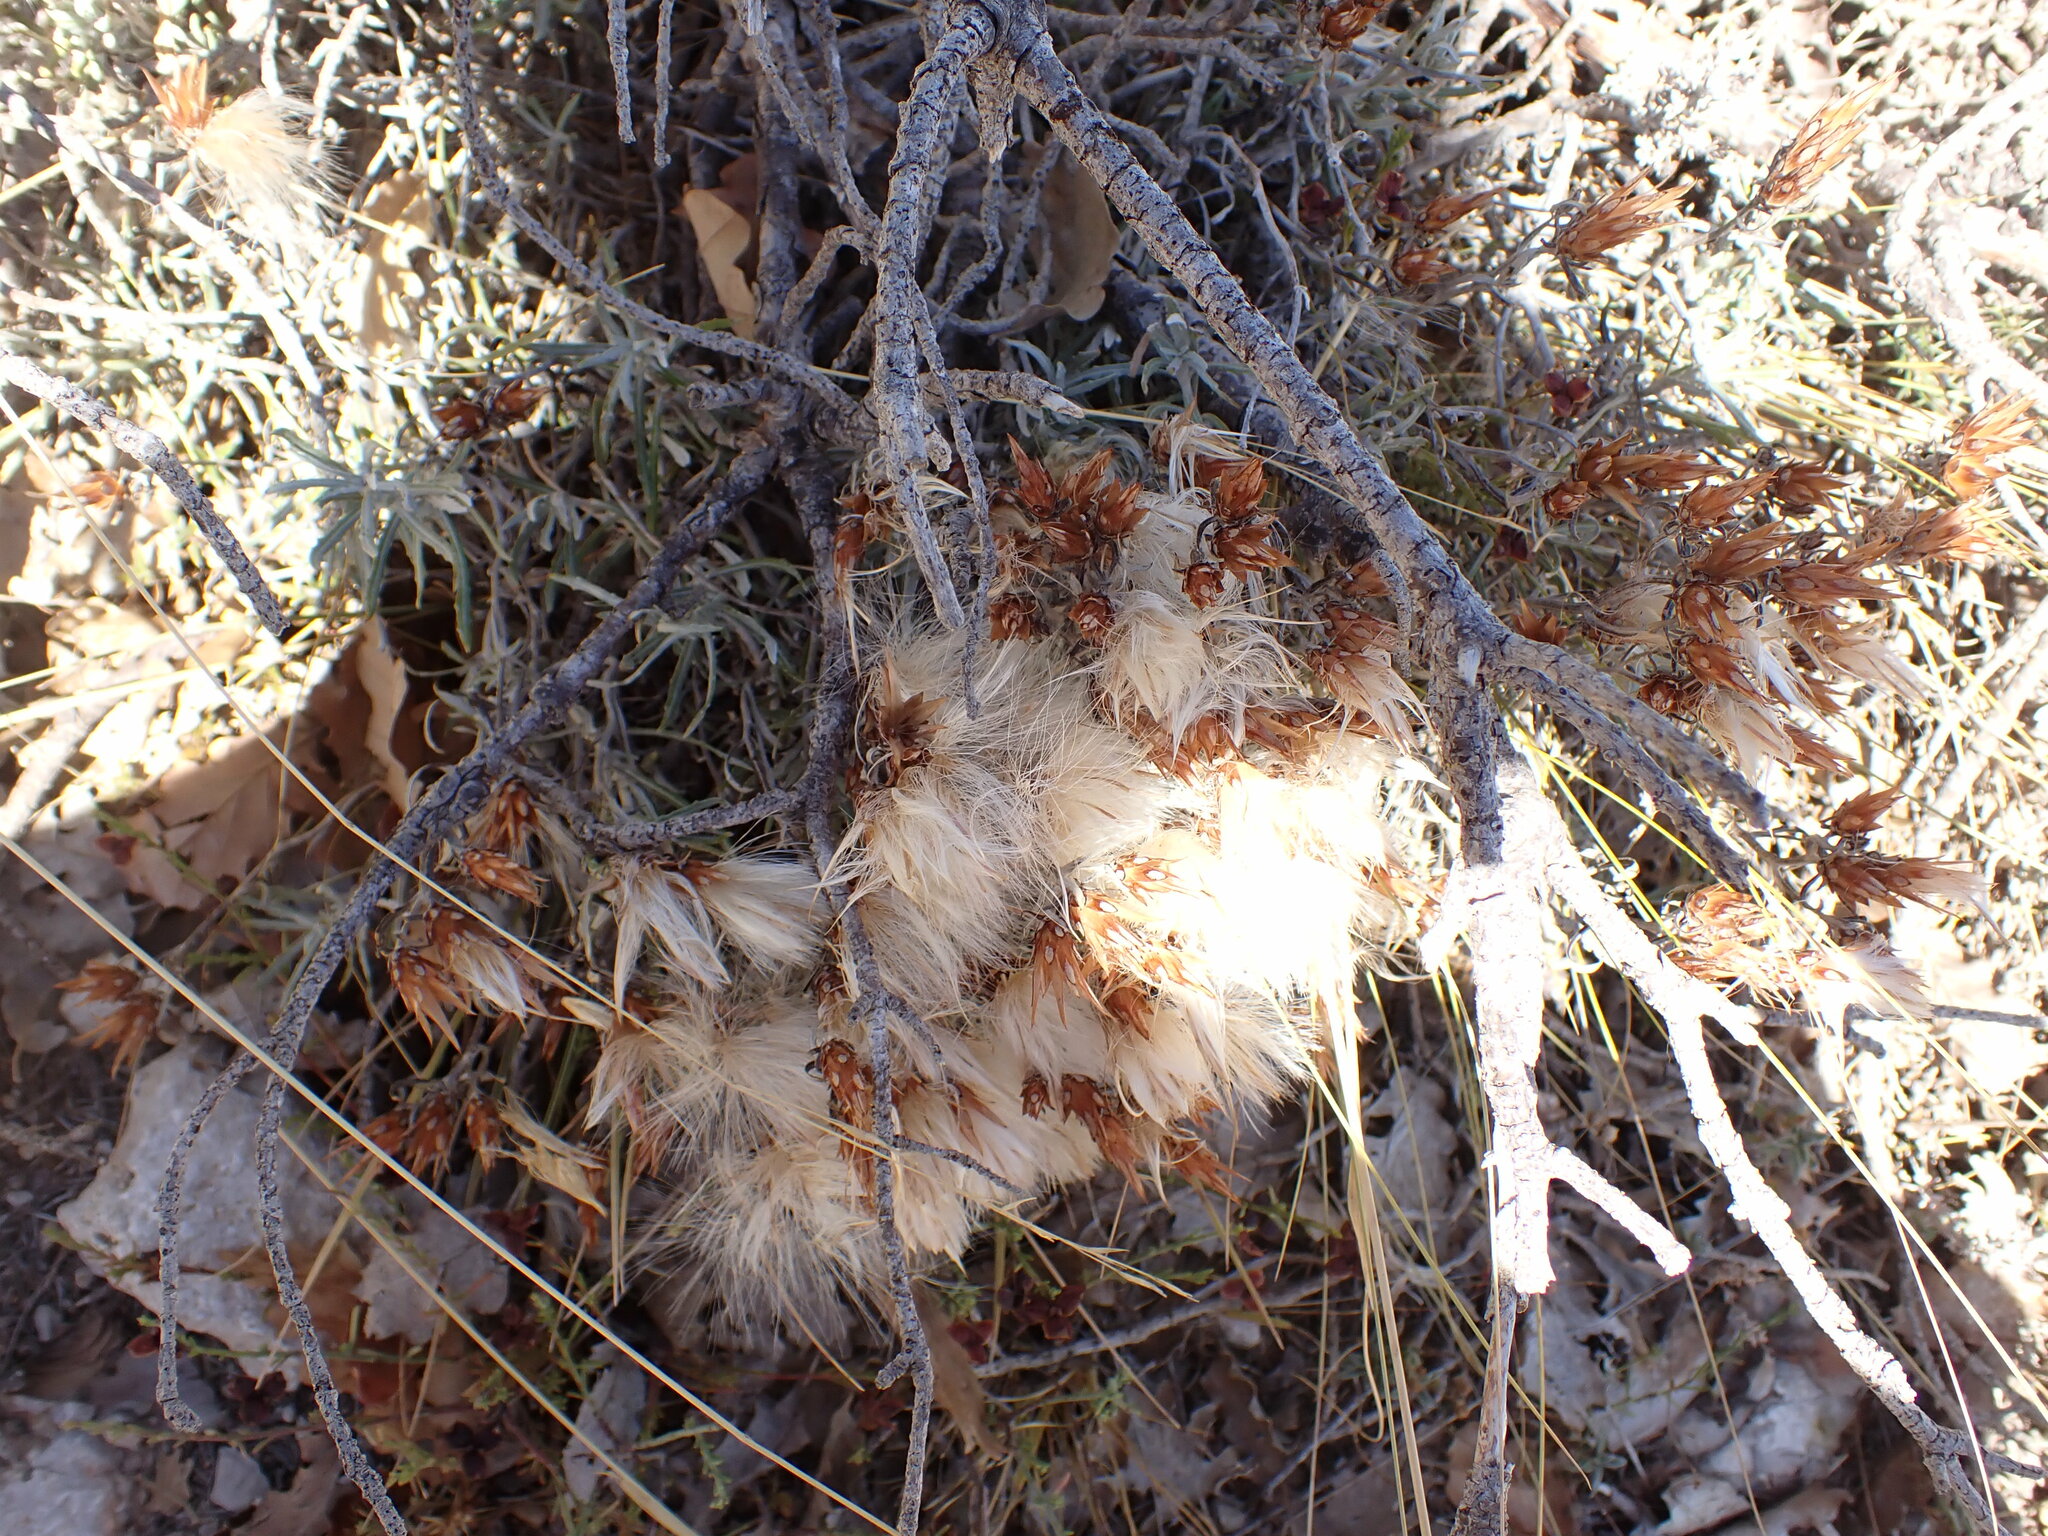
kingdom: Plantae
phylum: Tracheophyta
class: Magnoliopsida
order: Asterales
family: Asteraceae
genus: Staehelina
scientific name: Staehelina dubia
